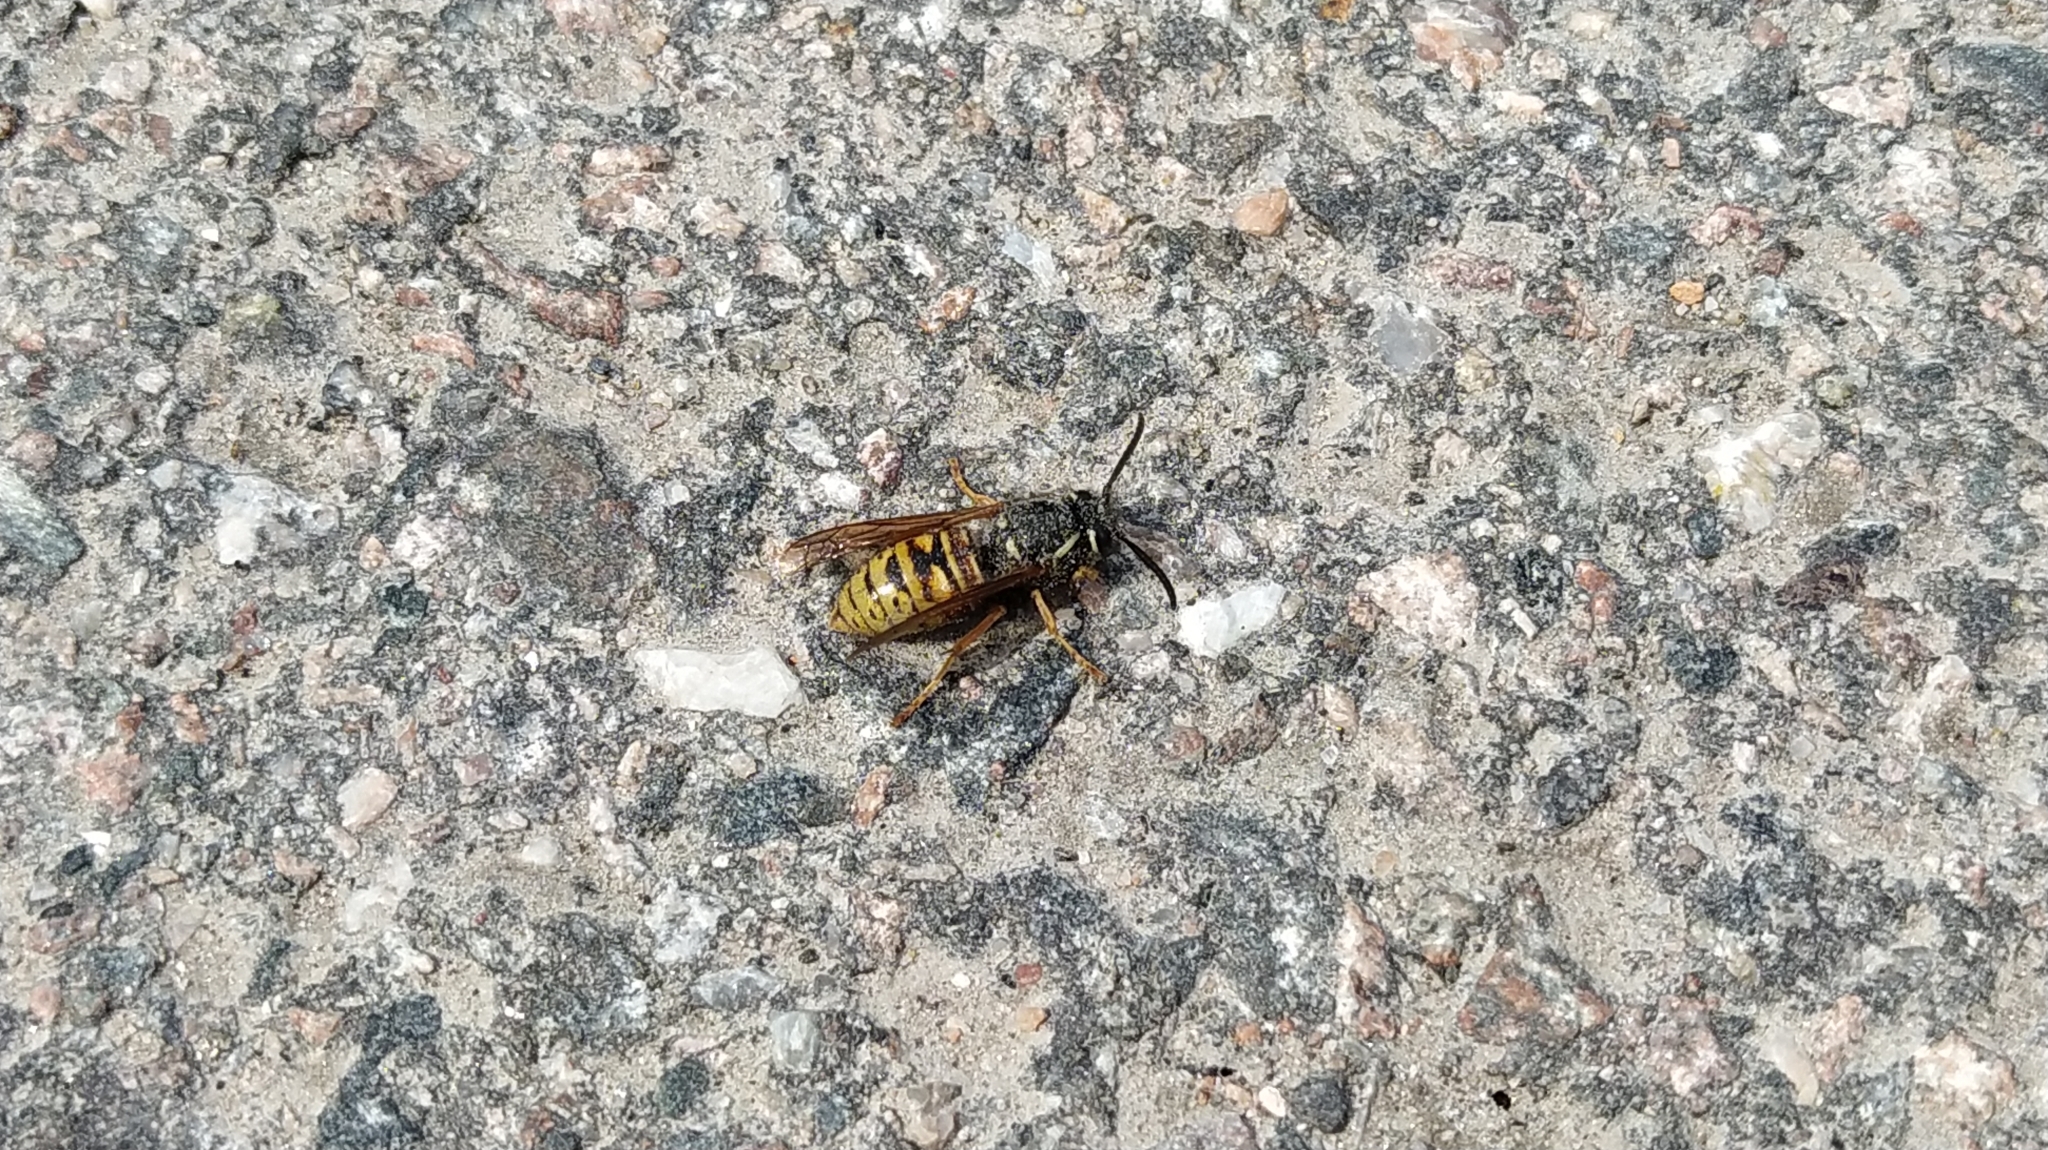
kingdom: Animalia
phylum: Arthropoda
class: Insecta
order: Hymenoptera
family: Vespidae
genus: Vespula
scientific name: Vespula rufa
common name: Red wasp
